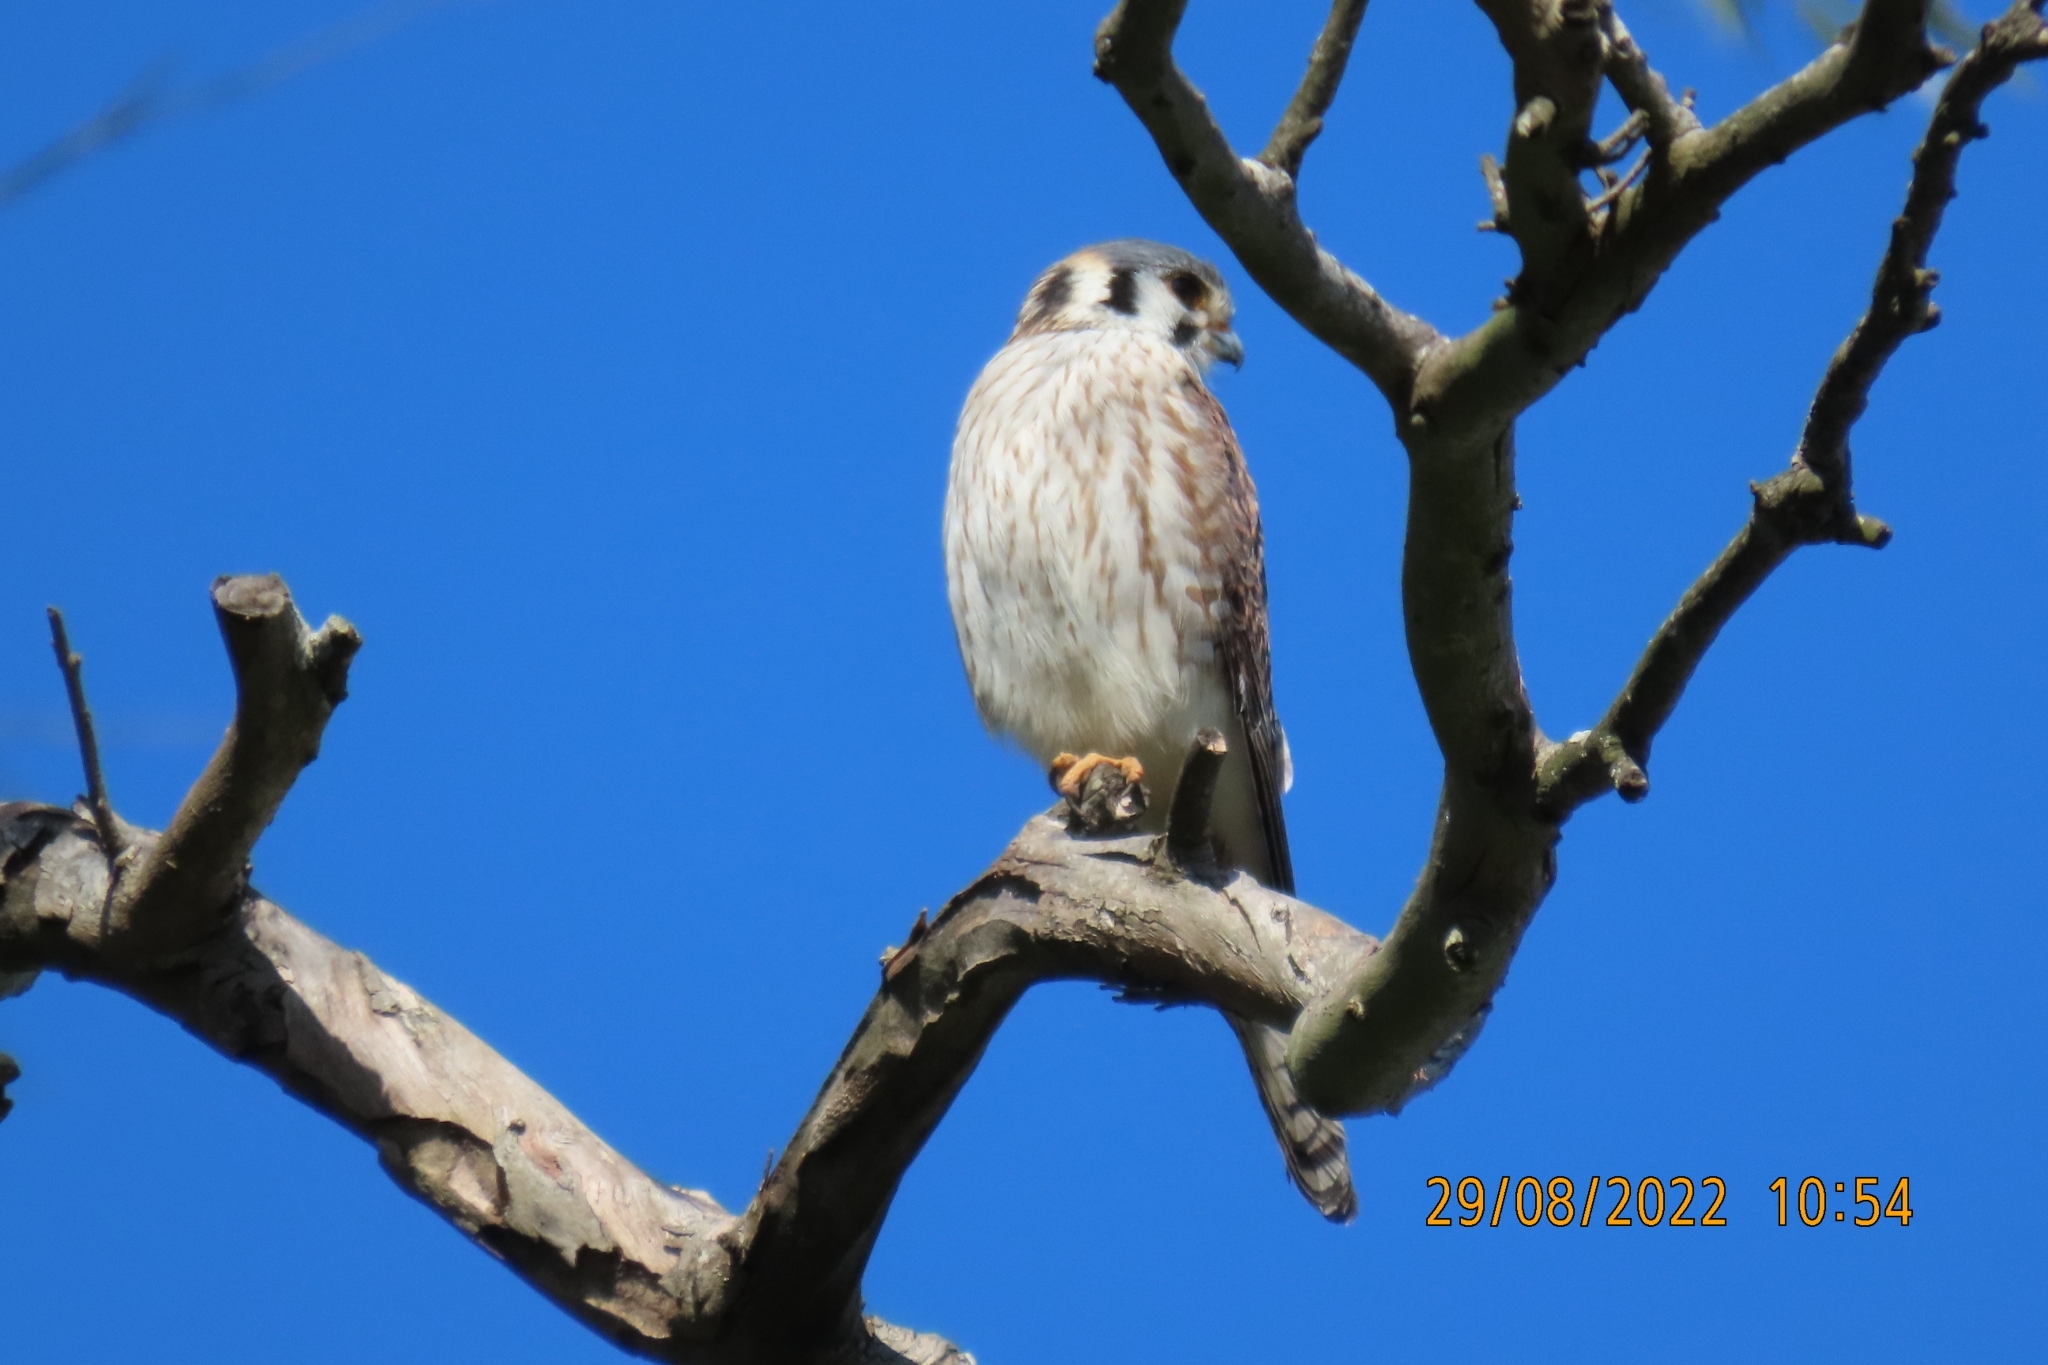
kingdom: Animalia
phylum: Chordata
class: Aves
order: Falconiformes
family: Falconidae
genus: Falco
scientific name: Falco sparverius
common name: American kestrel
